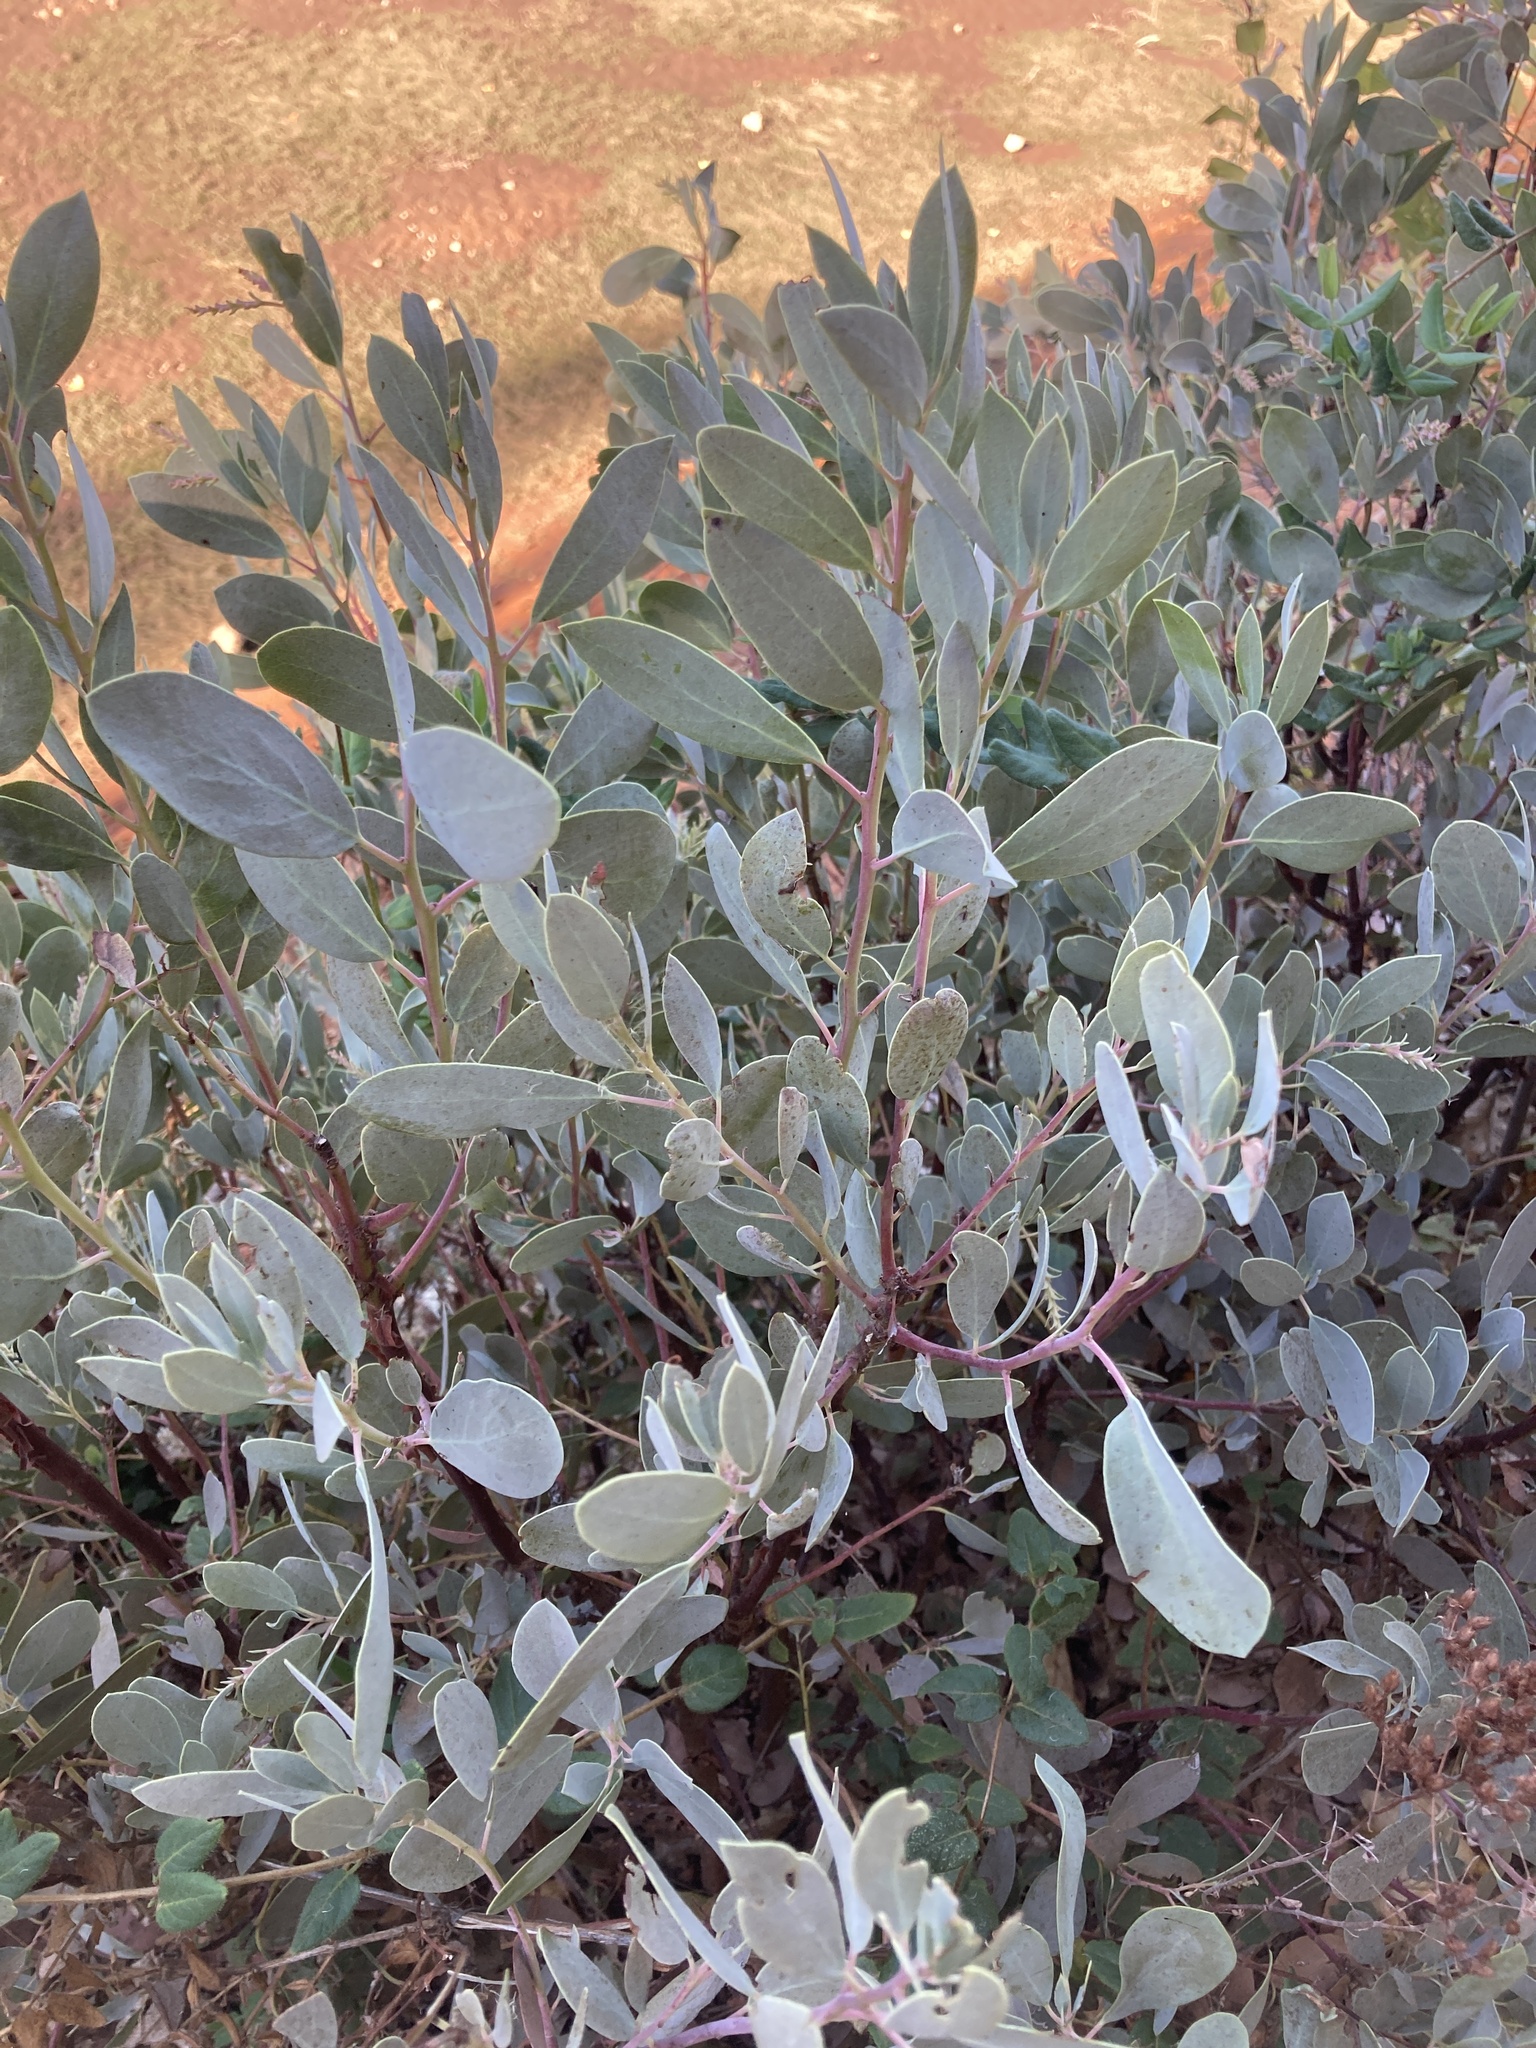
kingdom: Plantae
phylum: Tracheophyta
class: Magnoliopsida
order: Ericales
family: Ericaceae
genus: Arctostaphylos
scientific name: Arctostaphylos mewukka
